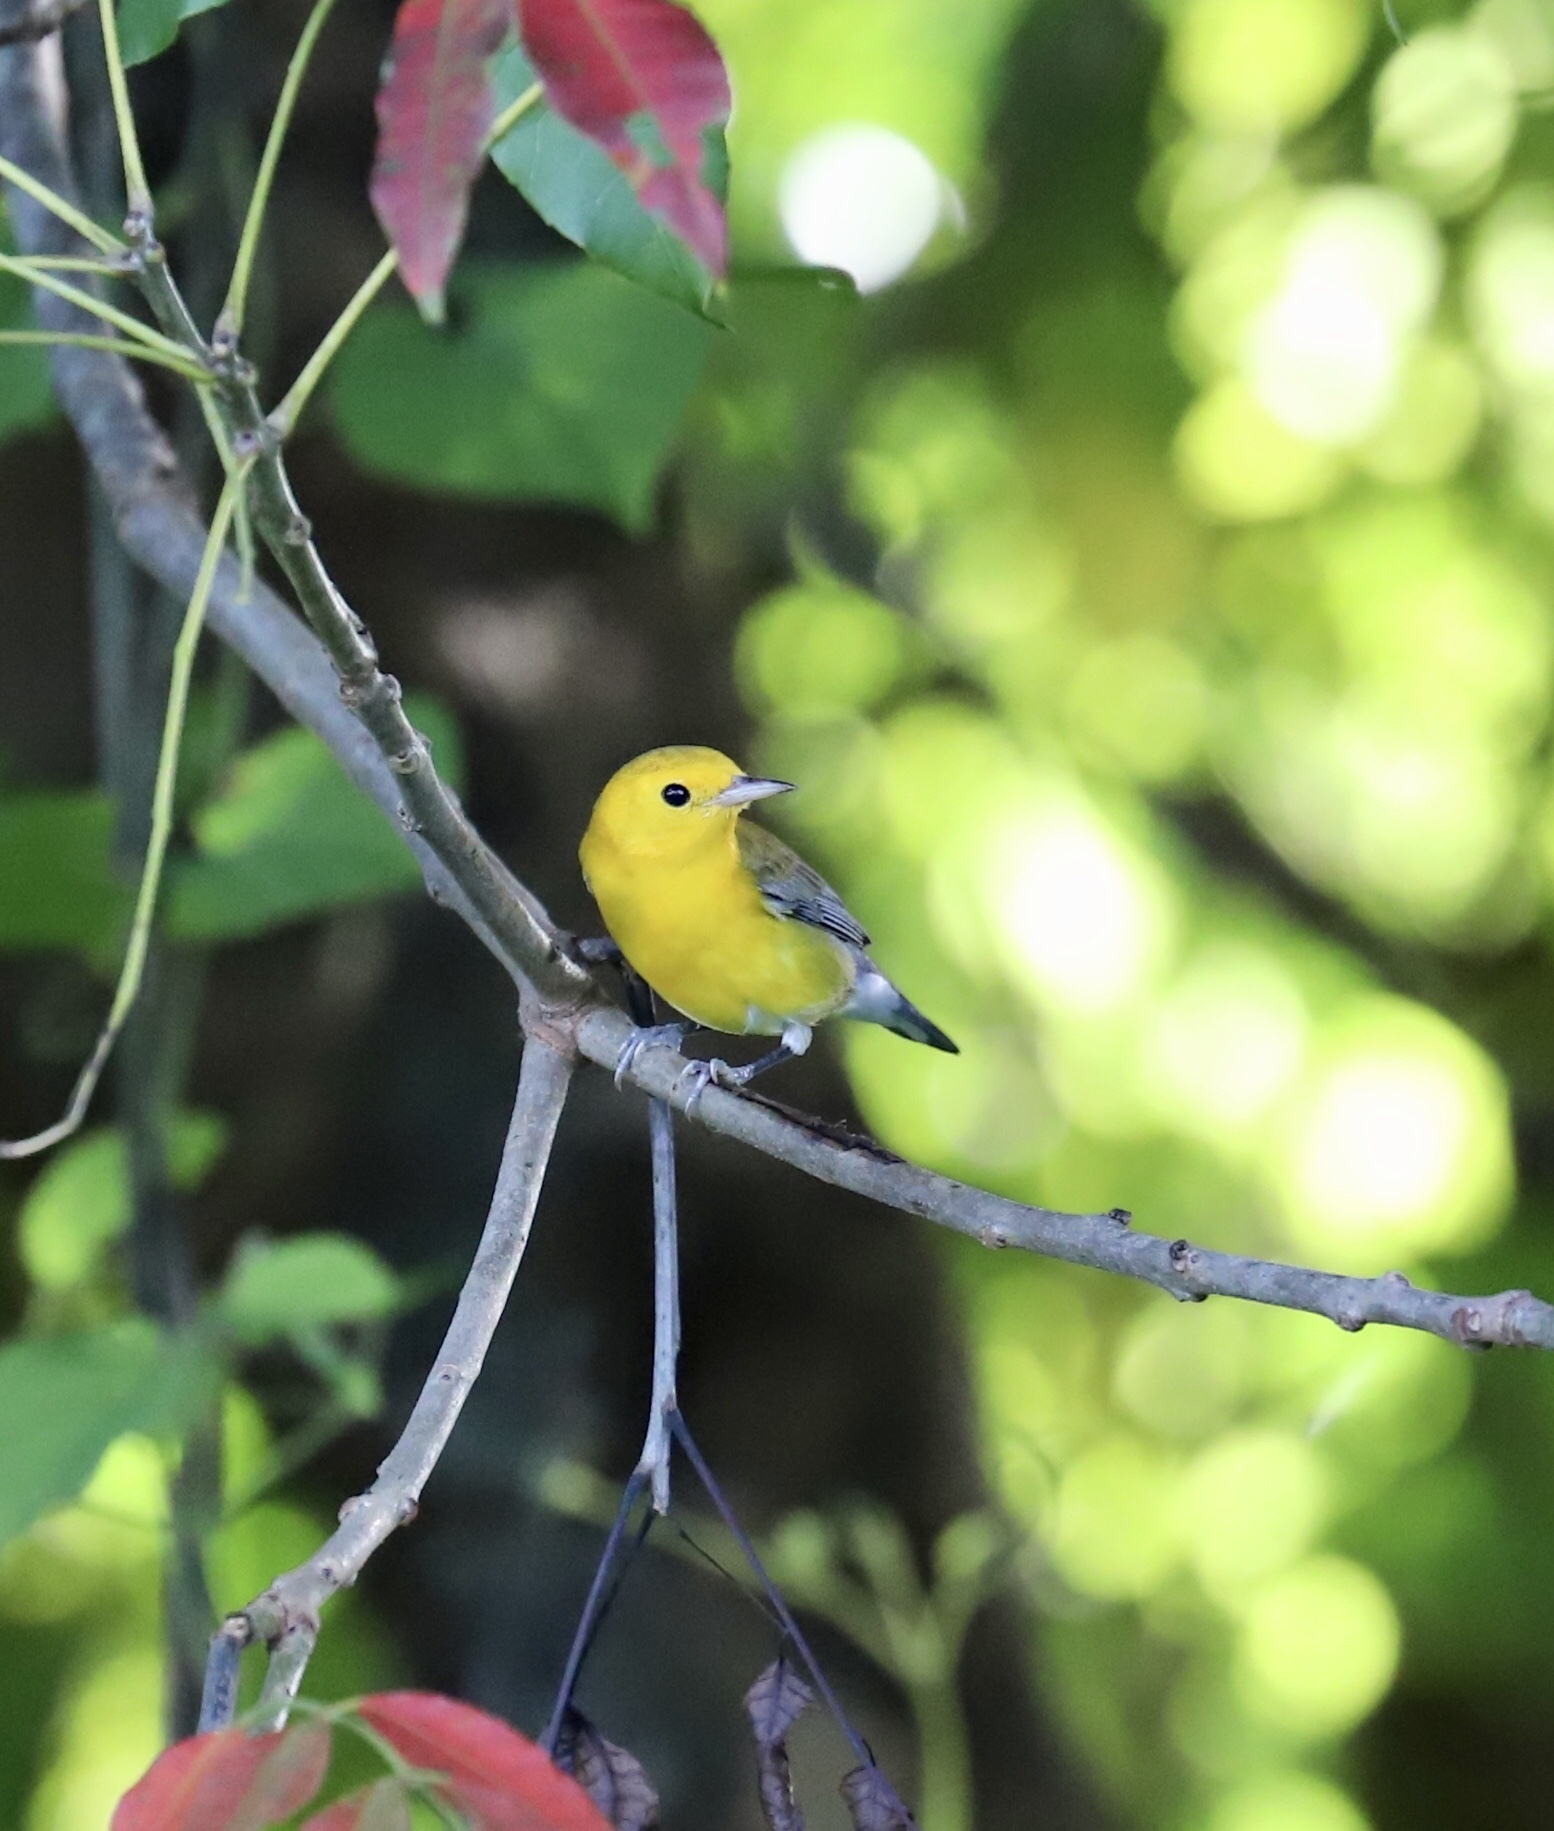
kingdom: Animalia
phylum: Chordata
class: Aves
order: Passeriformes
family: Parulidae
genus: Protonotaria
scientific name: Protonotaria citrea
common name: Prothonotary warbler
